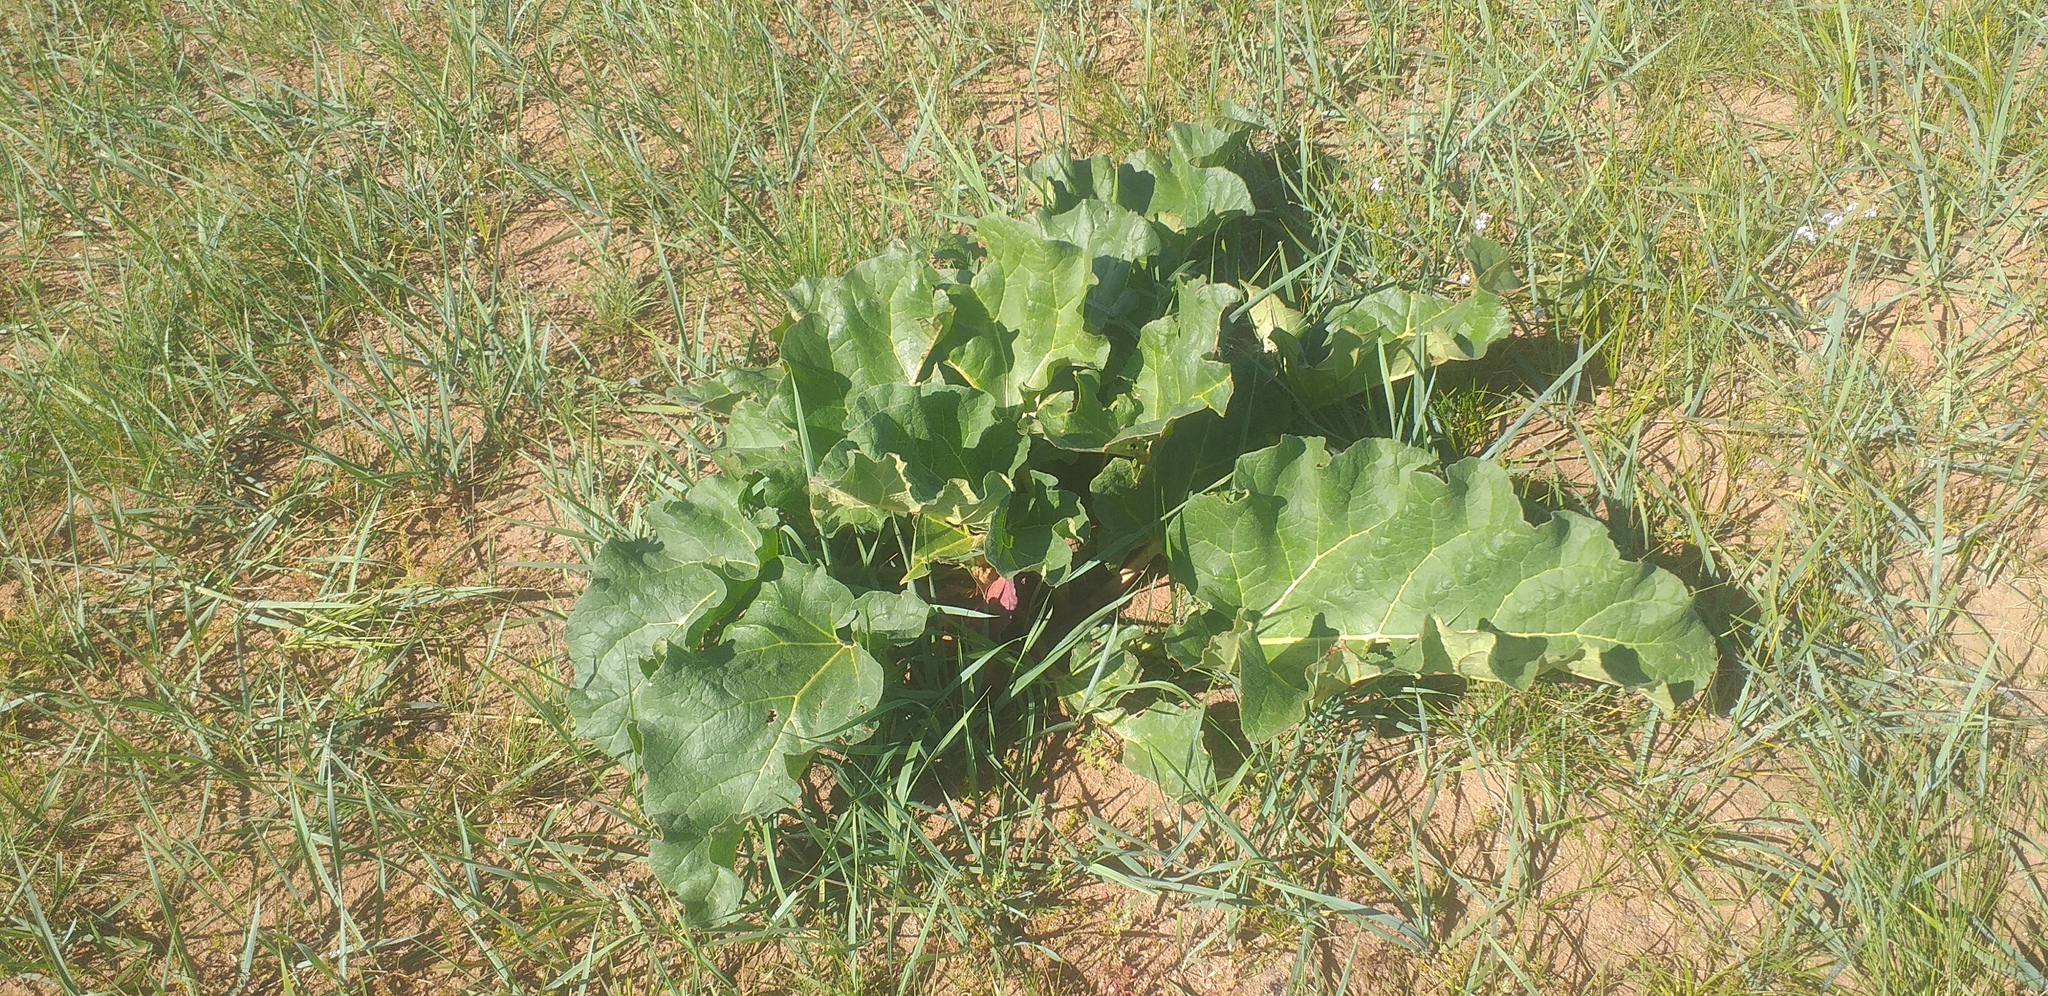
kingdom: Plantae
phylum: Tracheophyta
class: Magnoliopsida
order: Caryophyllales
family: Polygonaceae
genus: Rheum
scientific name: Rheum rhabarbarum
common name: Garden rhubarb
